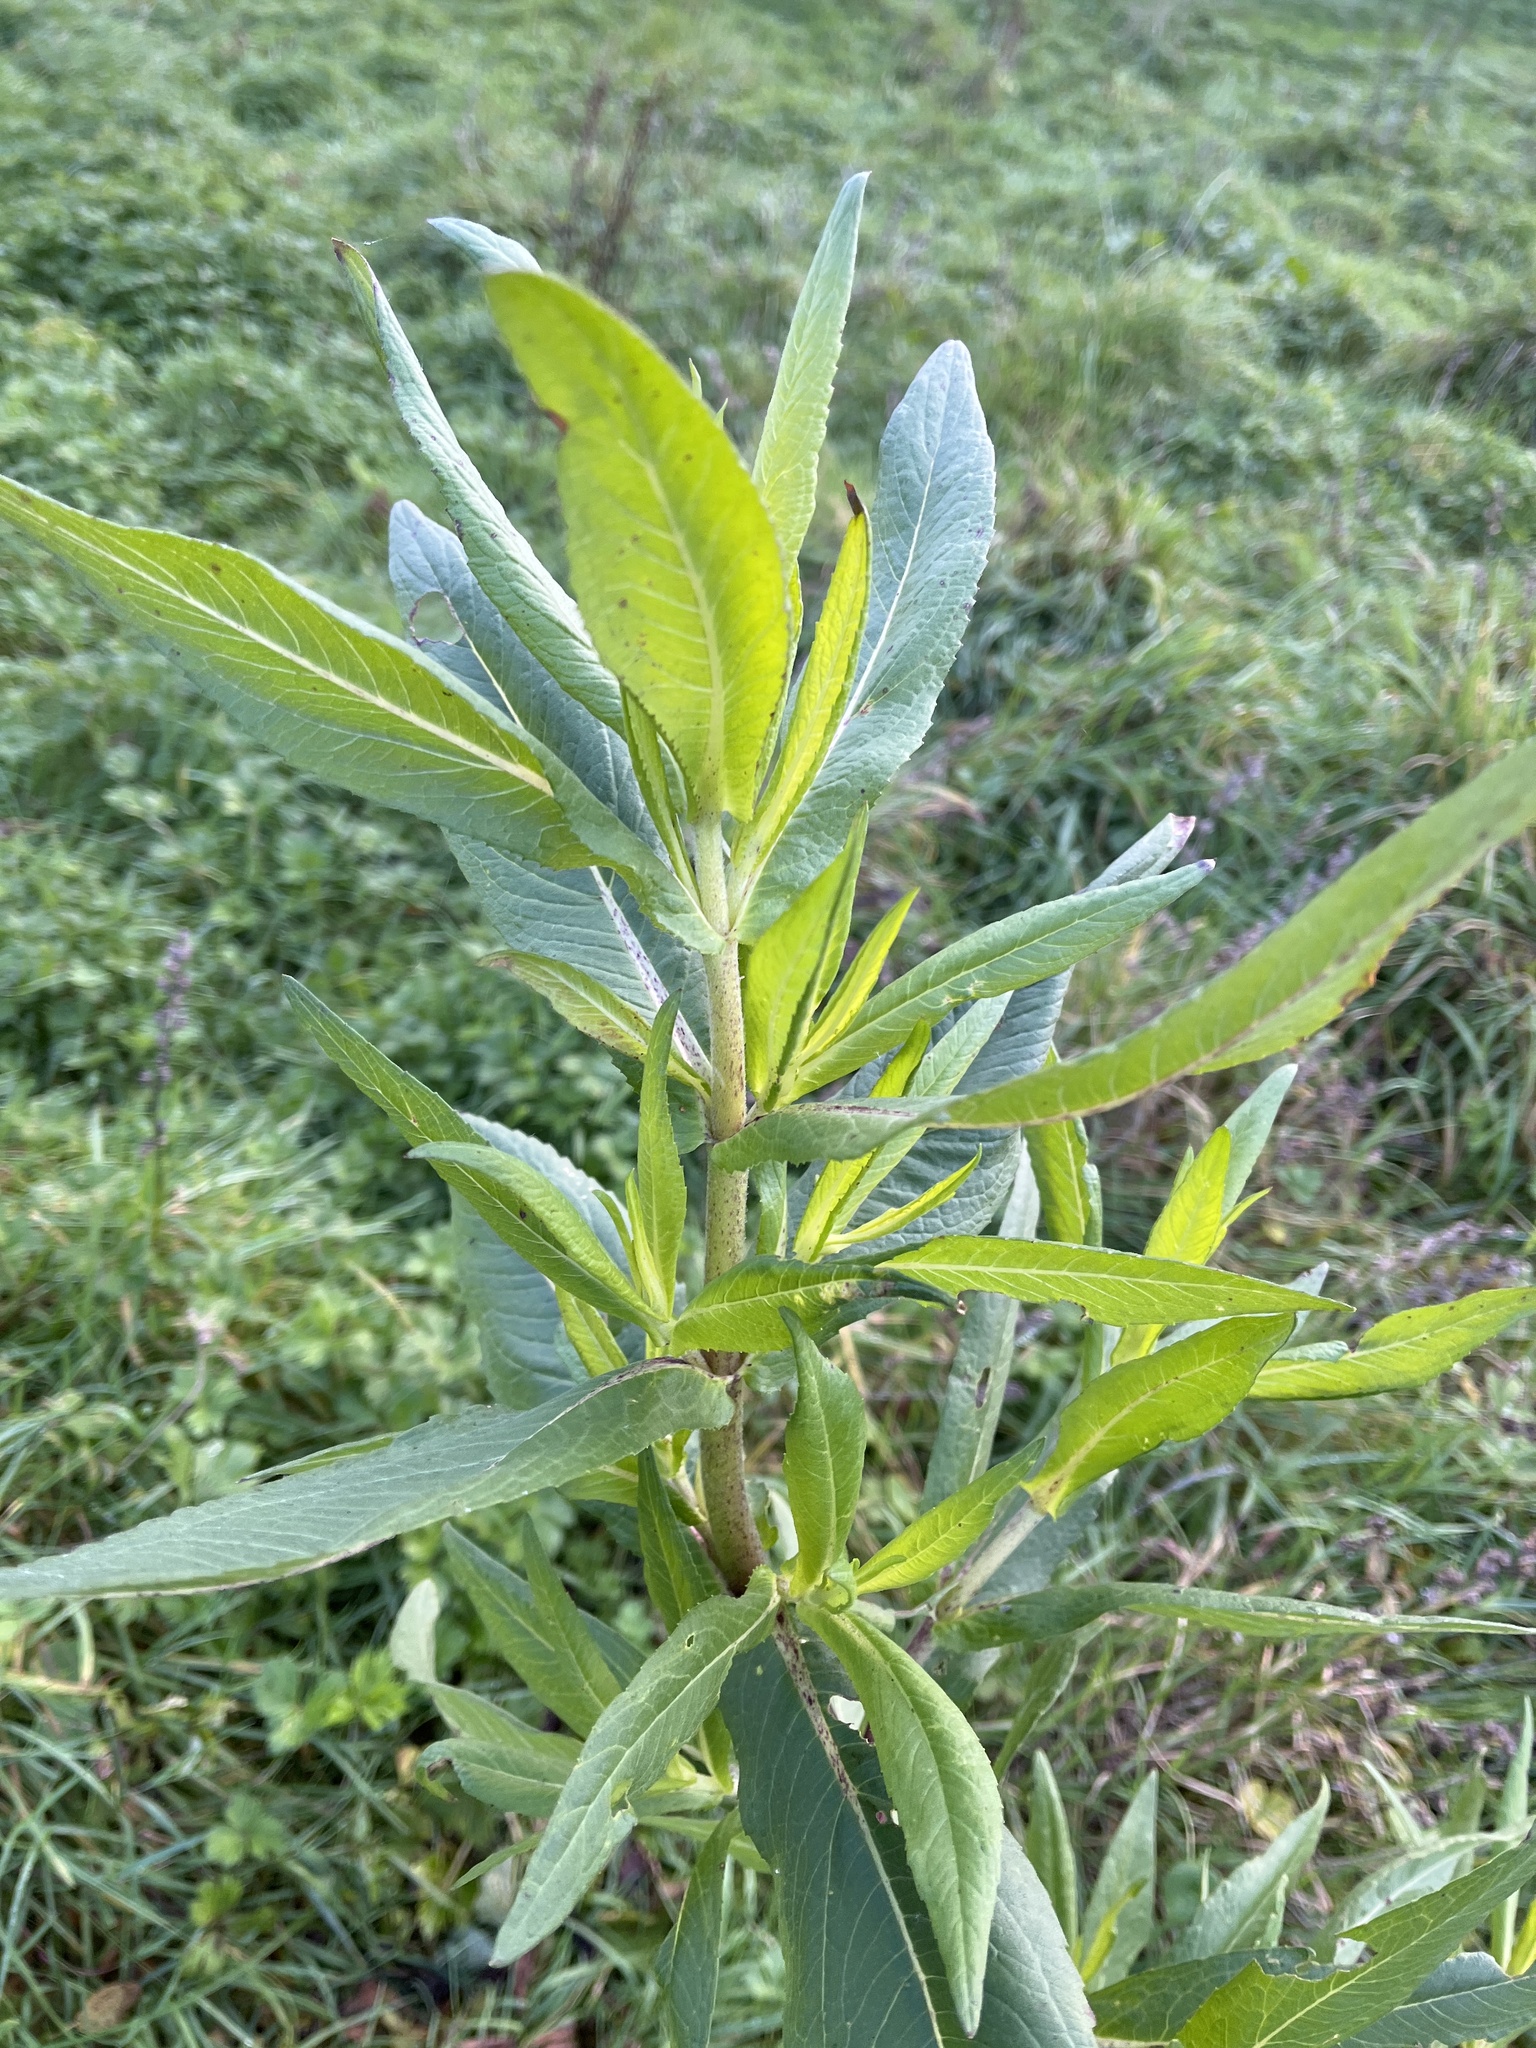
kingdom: Plantae
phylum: Tracheophyta
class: Magnoliopsida
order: Asterales
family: Asteraceae
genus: Guizotia
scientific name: Guizotia abyssinica
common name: Niger
